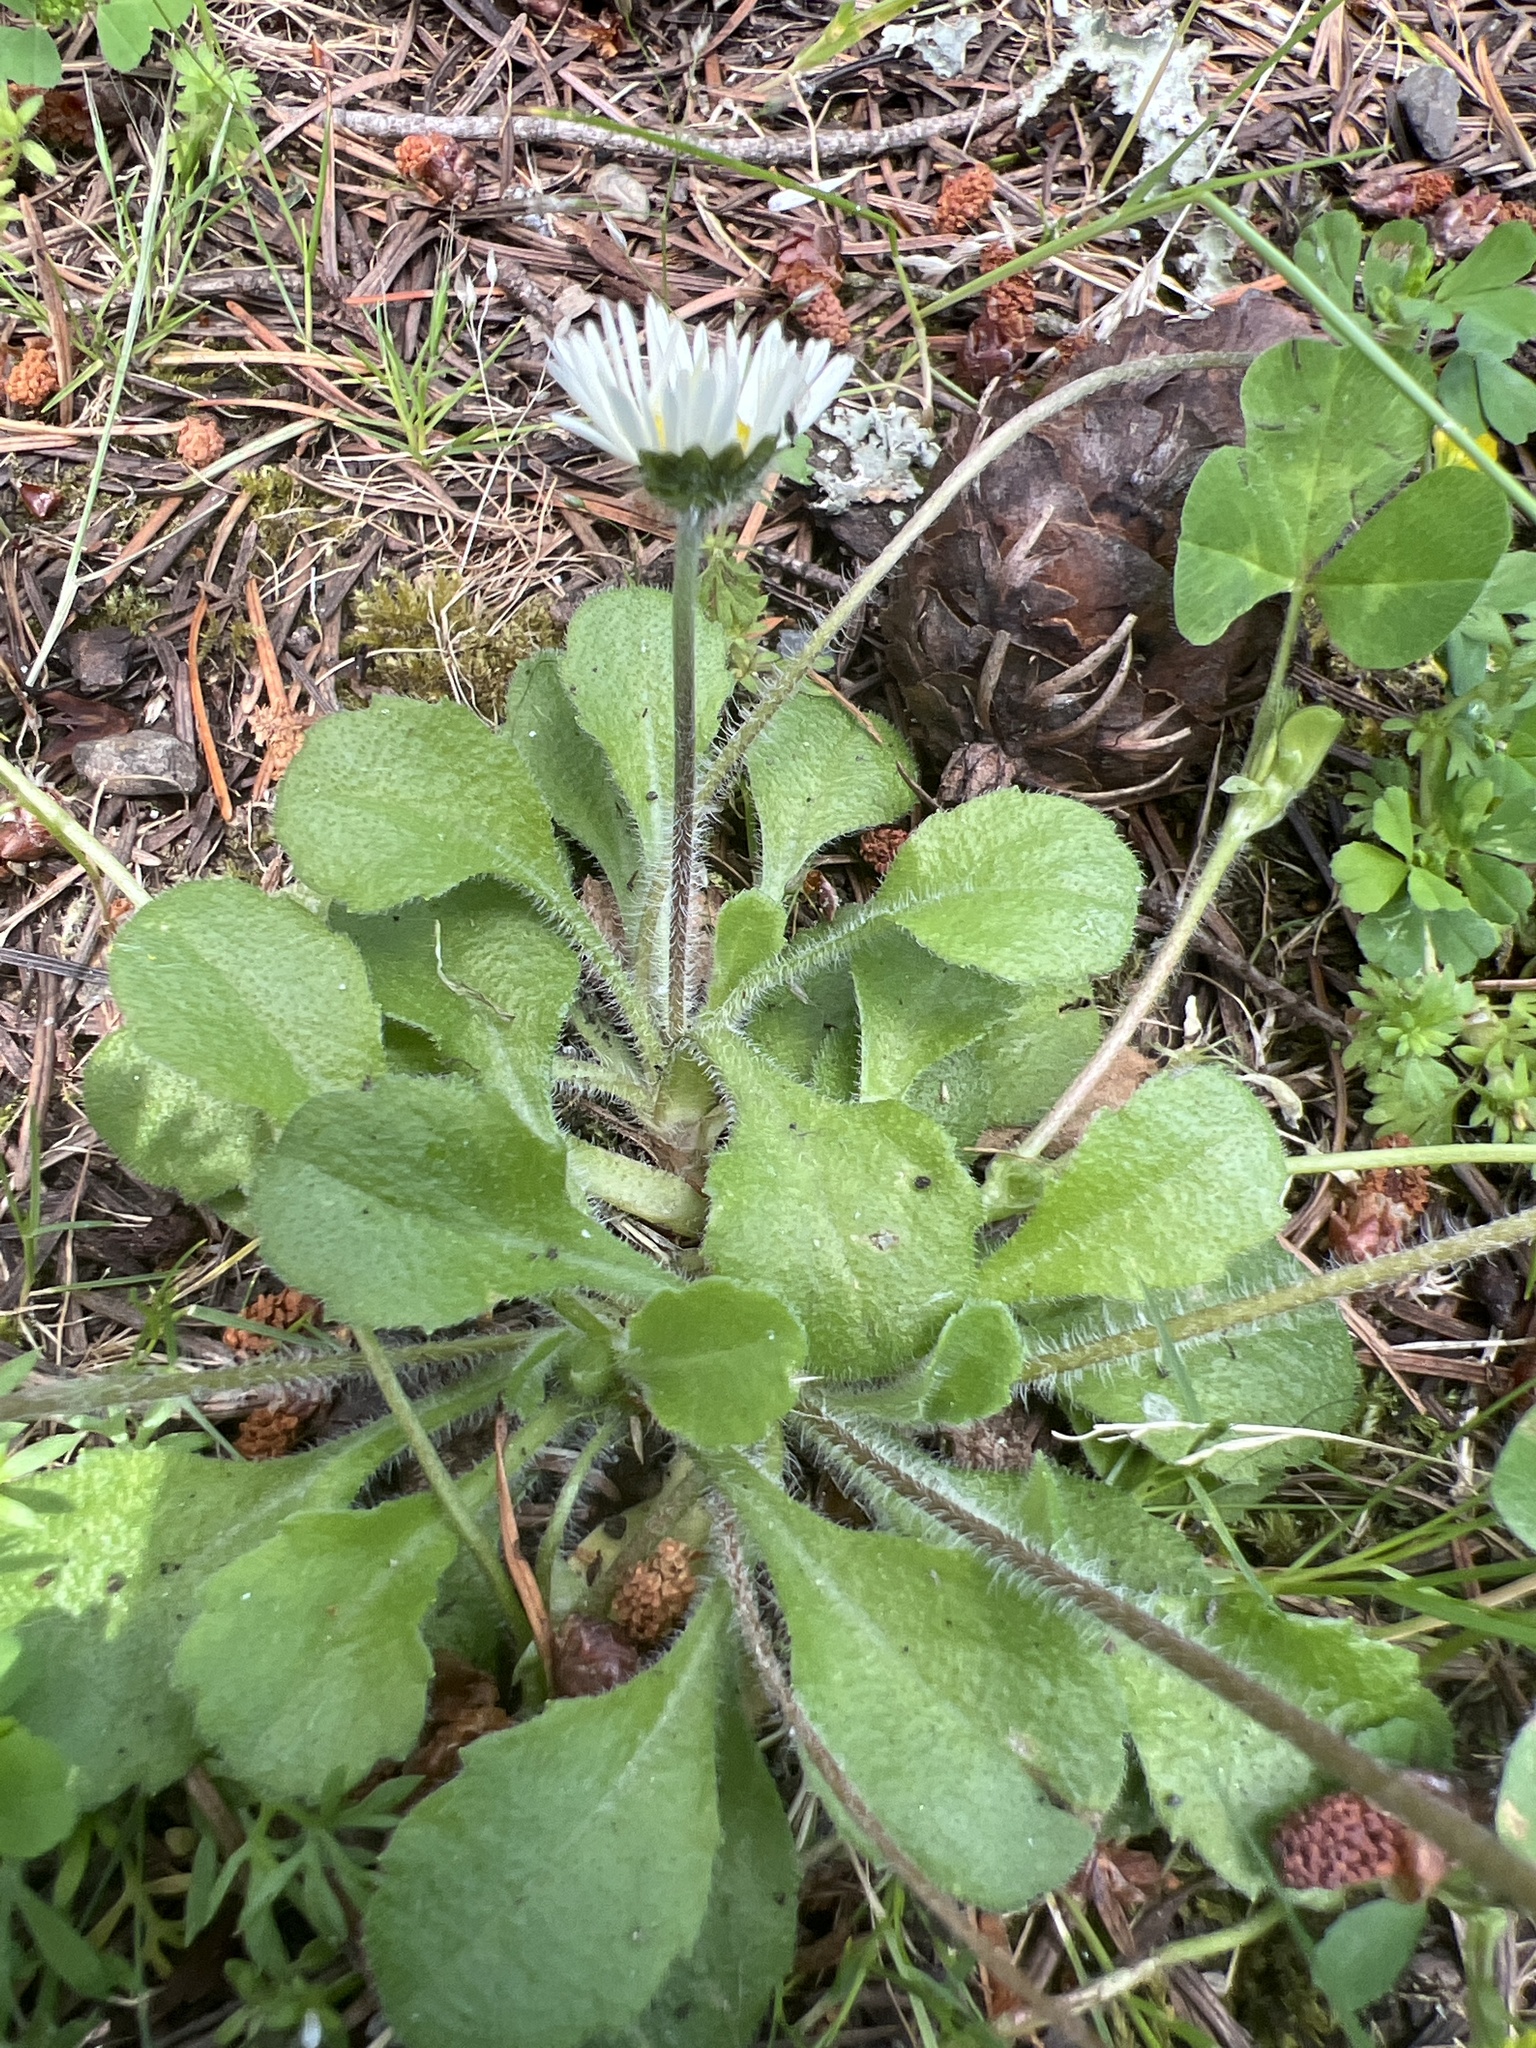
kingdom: Plantae
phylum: Tracheophyta
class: Magnoliopsida
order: Asterales
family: Asteraceae
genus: Bellis
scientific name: Bellis perennis
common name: Lawndaisy
